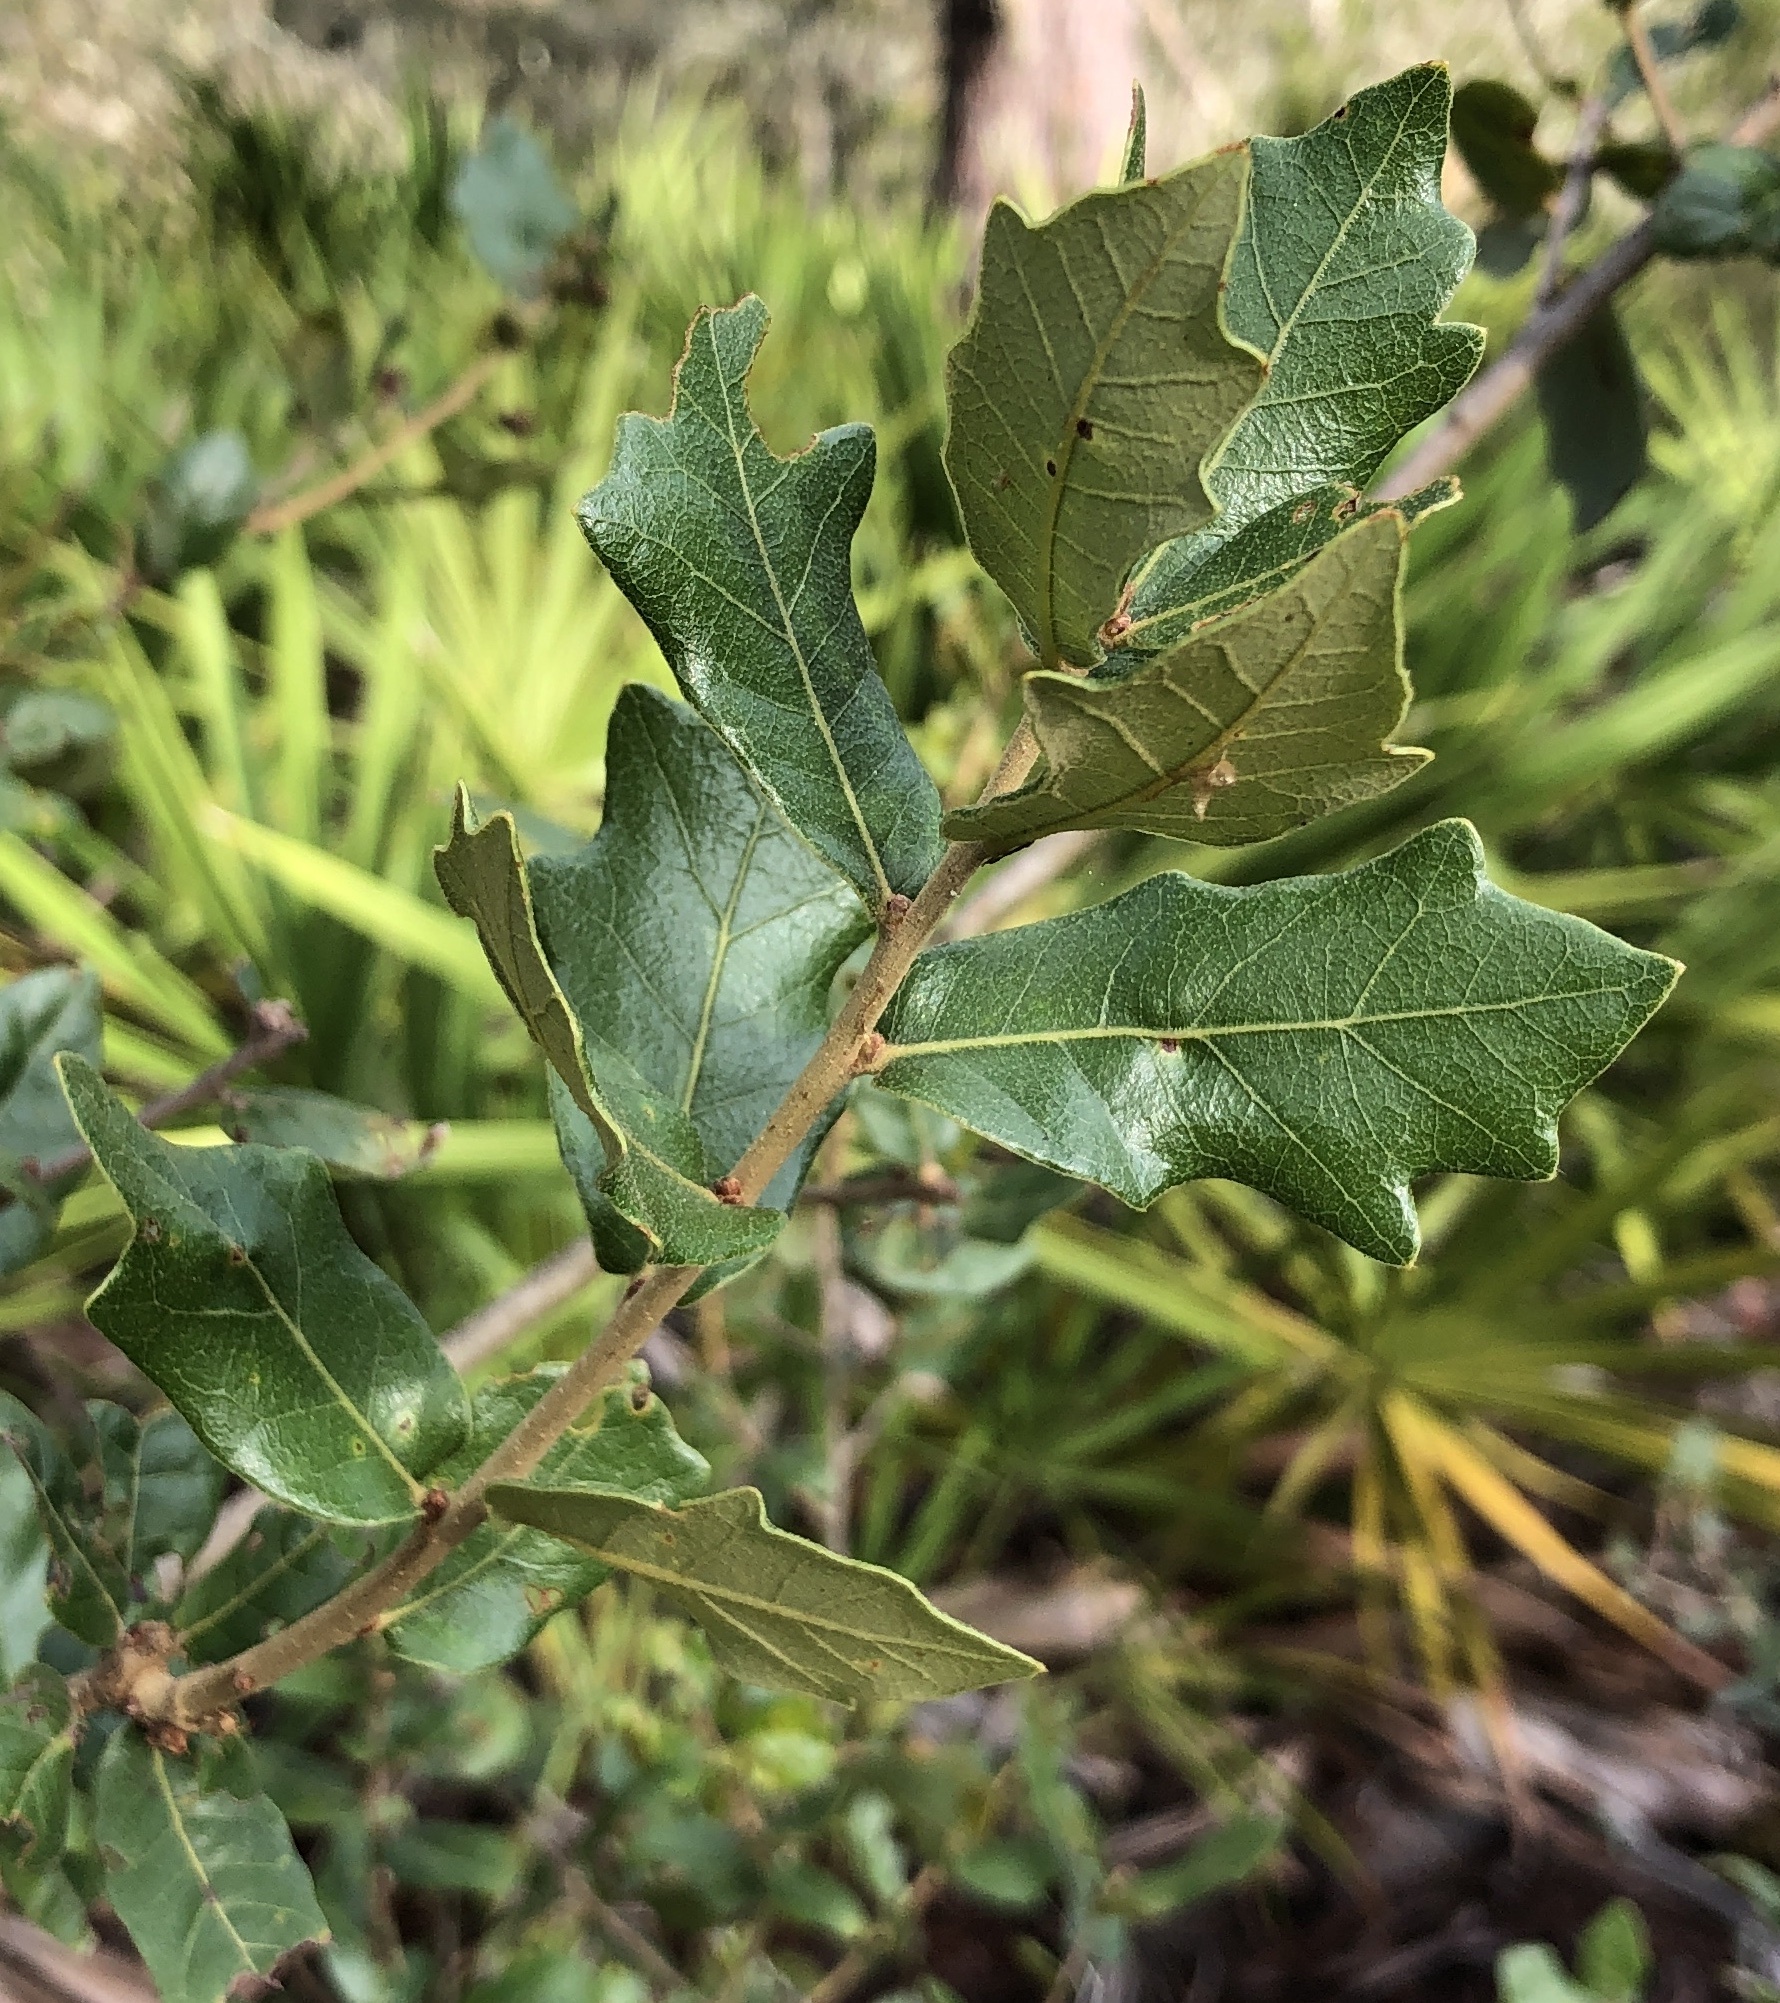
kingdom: Plantae
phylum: Tracheophyta
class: Magnoliopsida
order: Fagales
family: Fagaceae
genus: Quercus
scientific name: Quercus chapmanii
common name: Chapman oak
